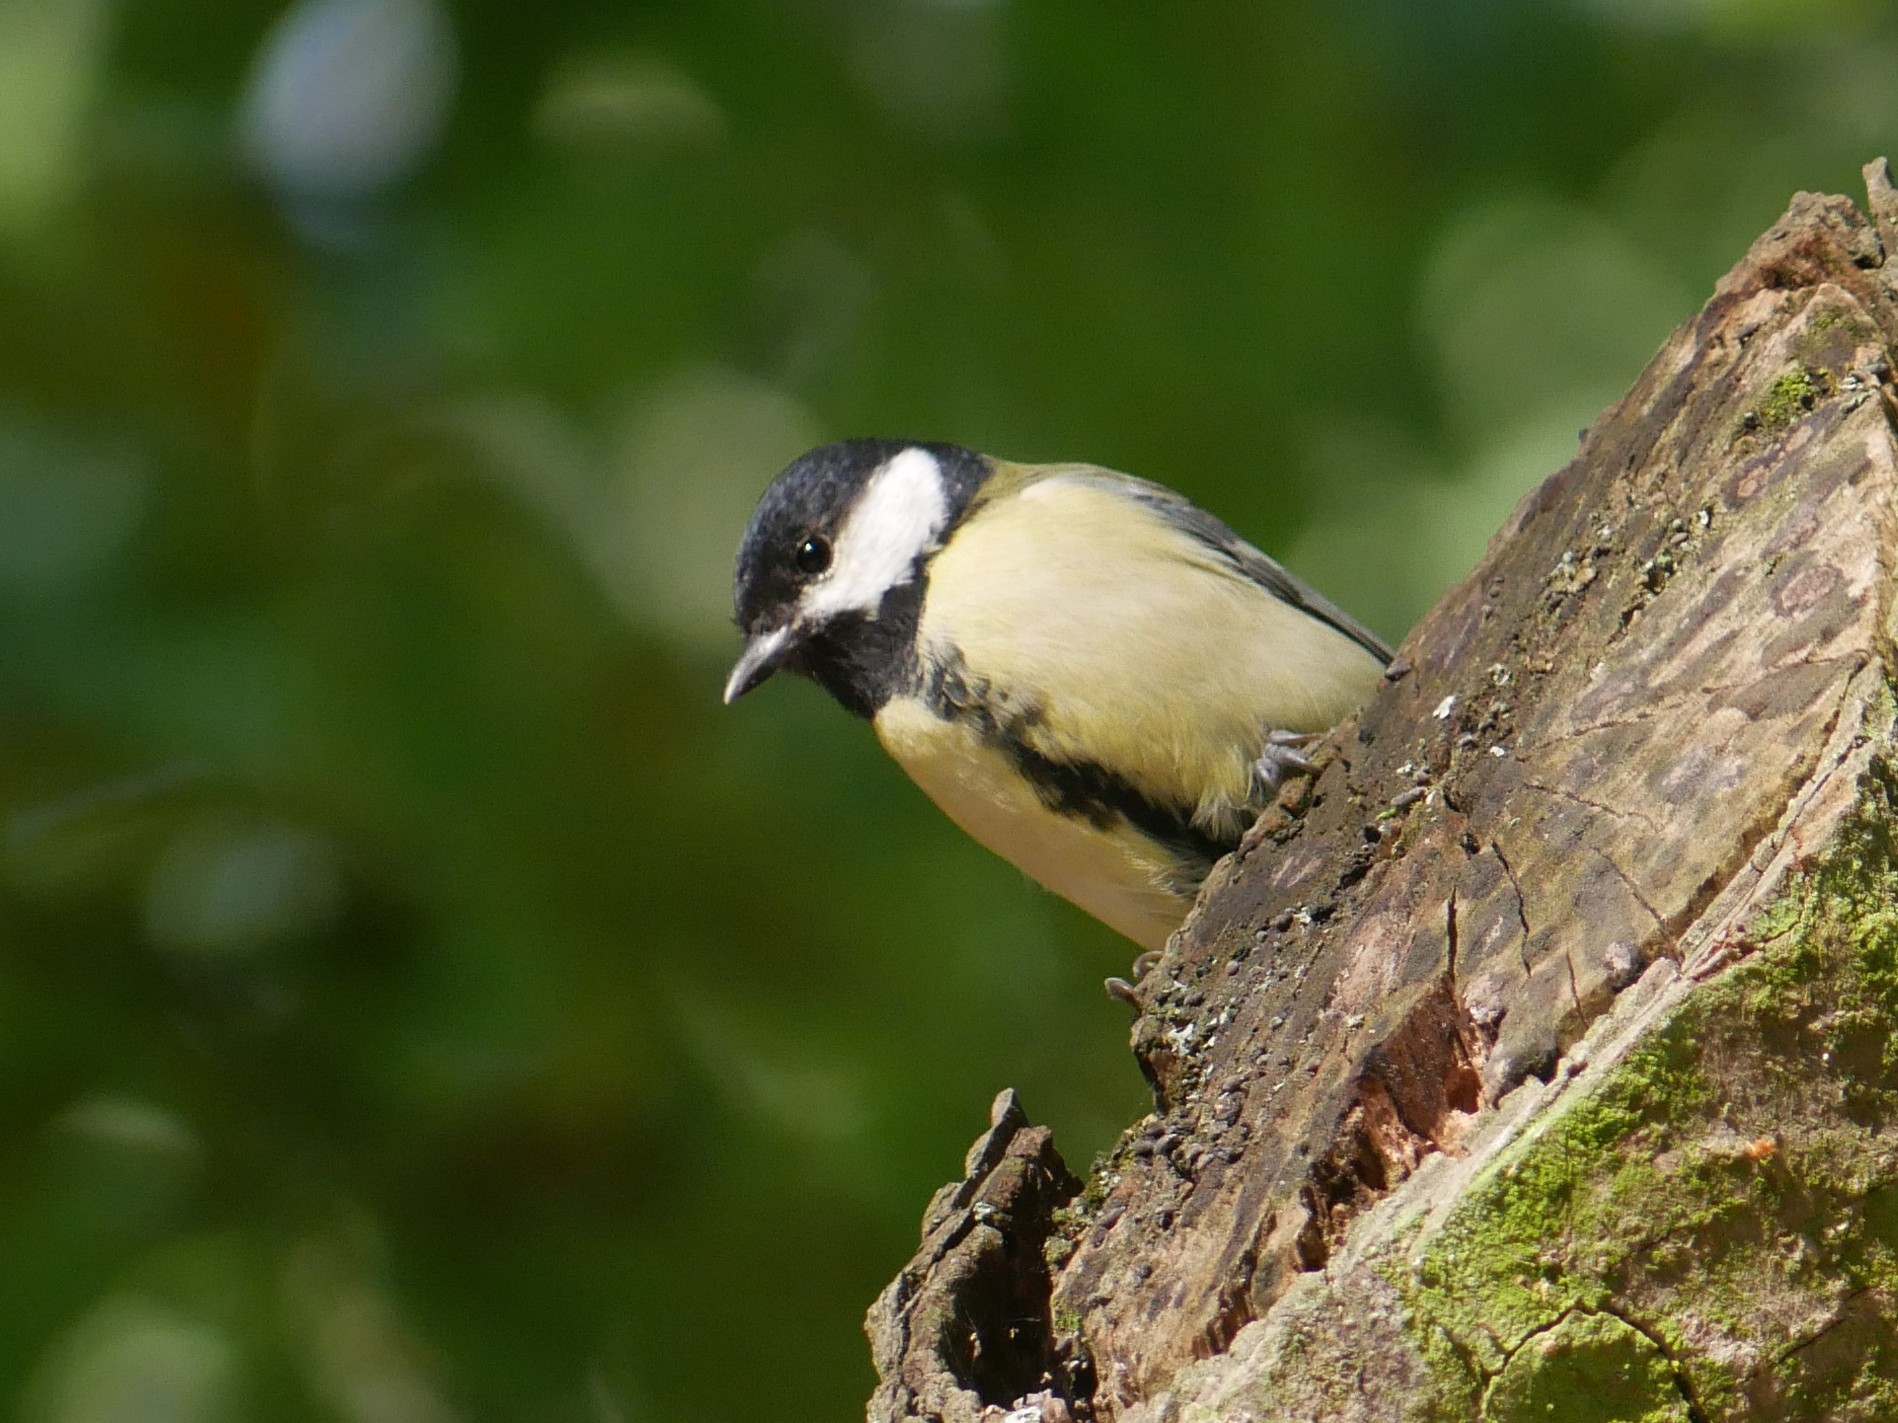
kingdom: Animalia
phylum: Chordata
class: Aves
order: Passeriformes
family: Paridae
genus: Parus
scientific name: Parus major
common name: Great tit
